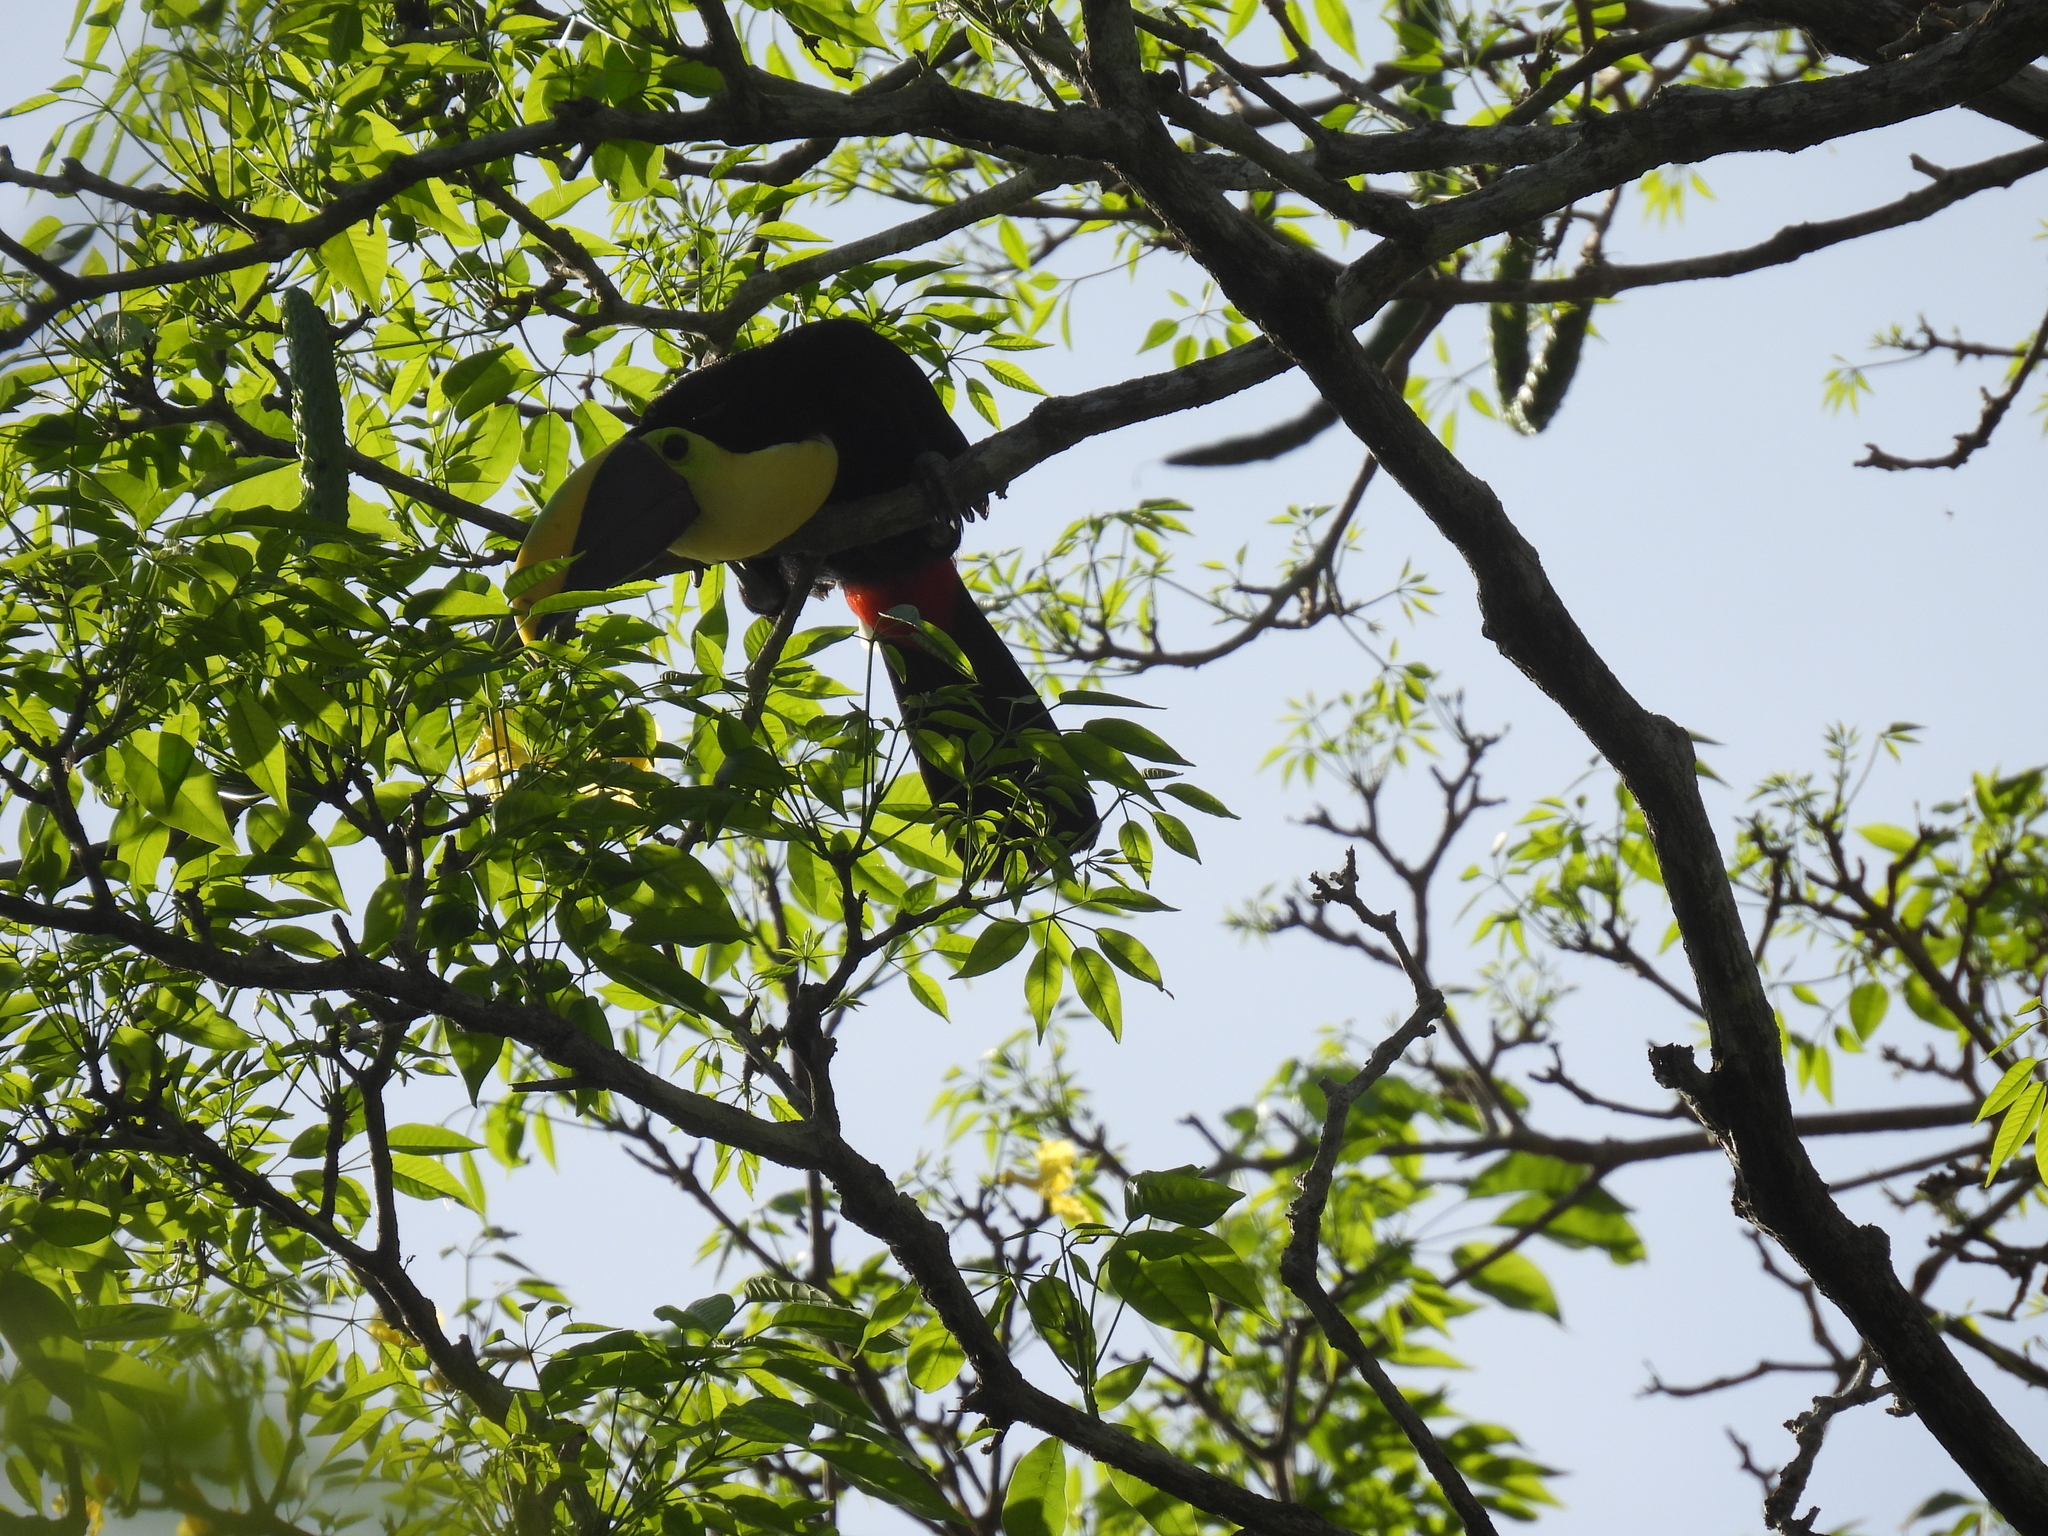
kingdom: Animalia
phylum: Chordata
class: Aves
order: Piciformes
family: Ramphastidae
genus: Ramphastos
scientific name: Ramphastos ambiguus
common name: Yellow-throated toucan
